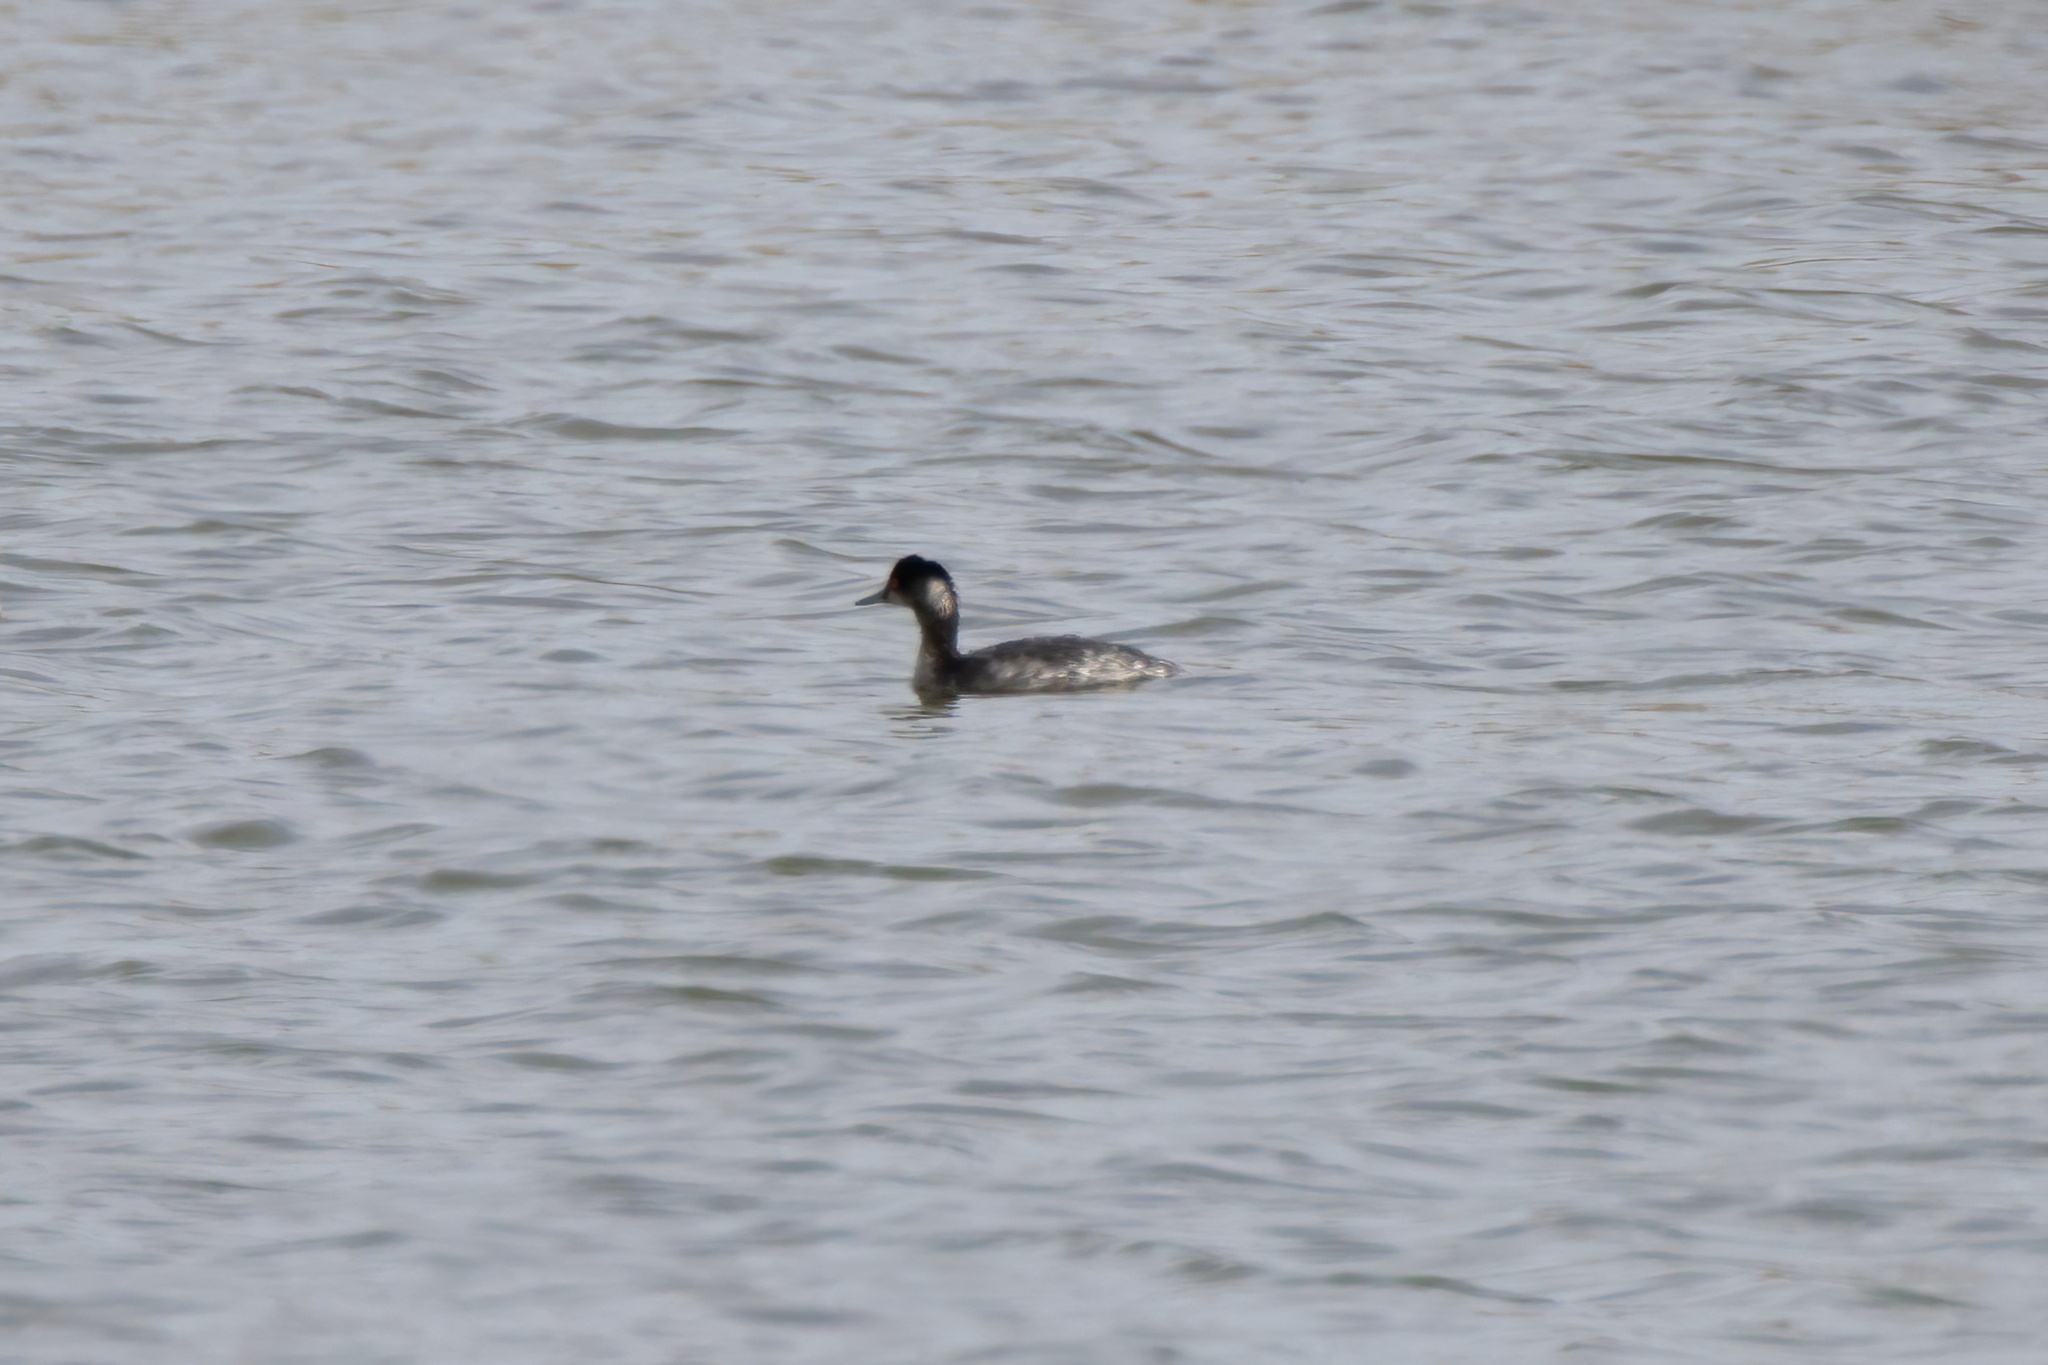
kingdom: Animalia
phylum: Chordata
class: Aves
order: Podicipediformes
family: Podicipedidae
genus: Podiceps
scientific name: Podiceps nigricollis
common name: Black-necked grebe
